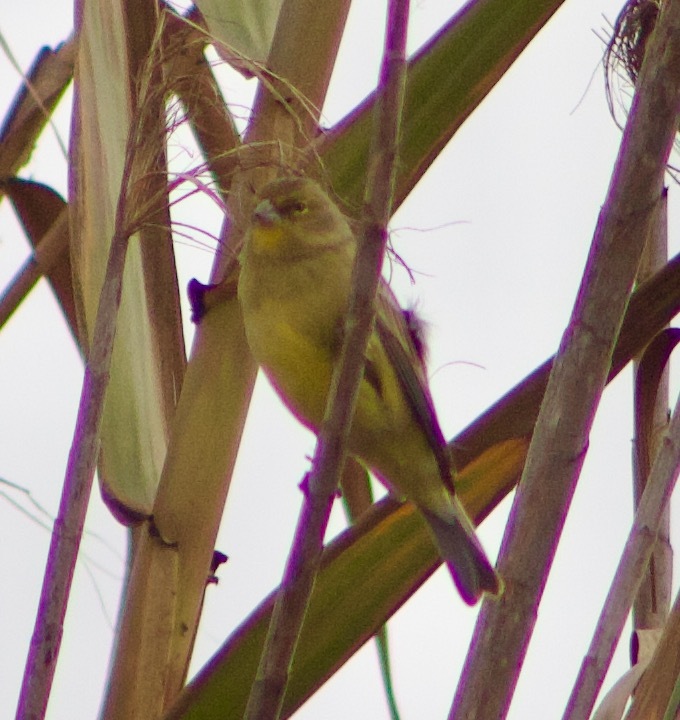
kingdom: Animalia
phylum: Chordata
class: Aves
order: Passeriformes
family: Thraupidae
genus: Sicalis
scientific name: Sicalis luteola
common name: Grassland yellow-finch
